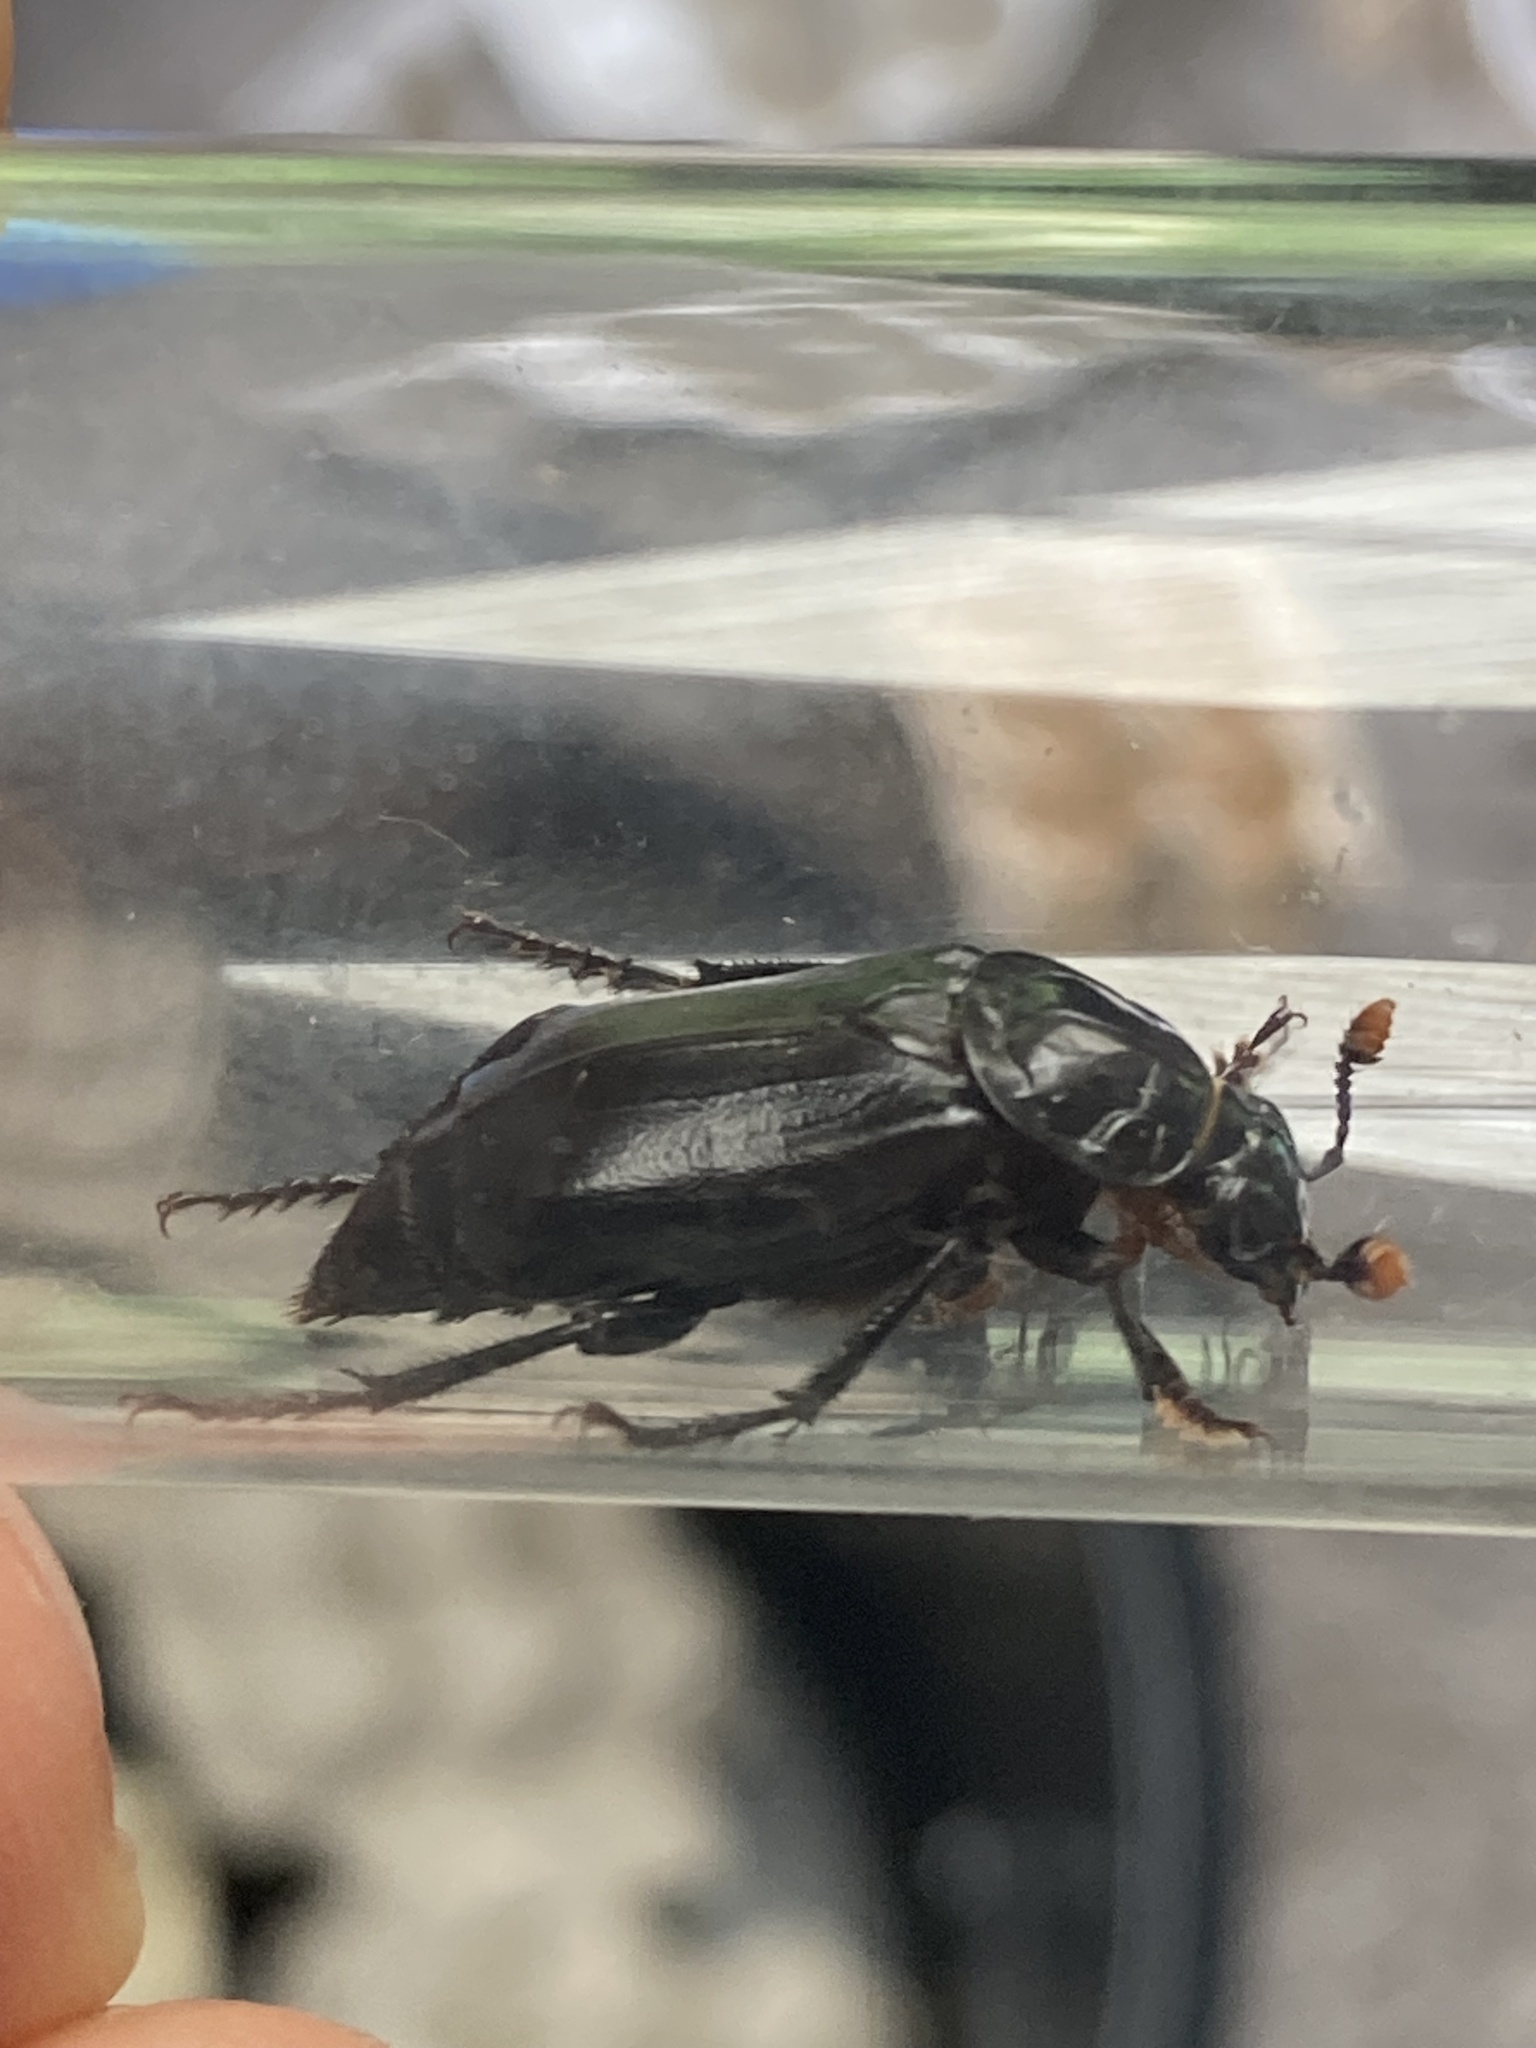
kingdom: Animalia
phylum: Arthropoda
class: Insecta
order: Coleoptera
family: Staphylinidae
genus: Nicrophorus
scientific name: Nicrophorus humator
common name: Black sexton beetle
